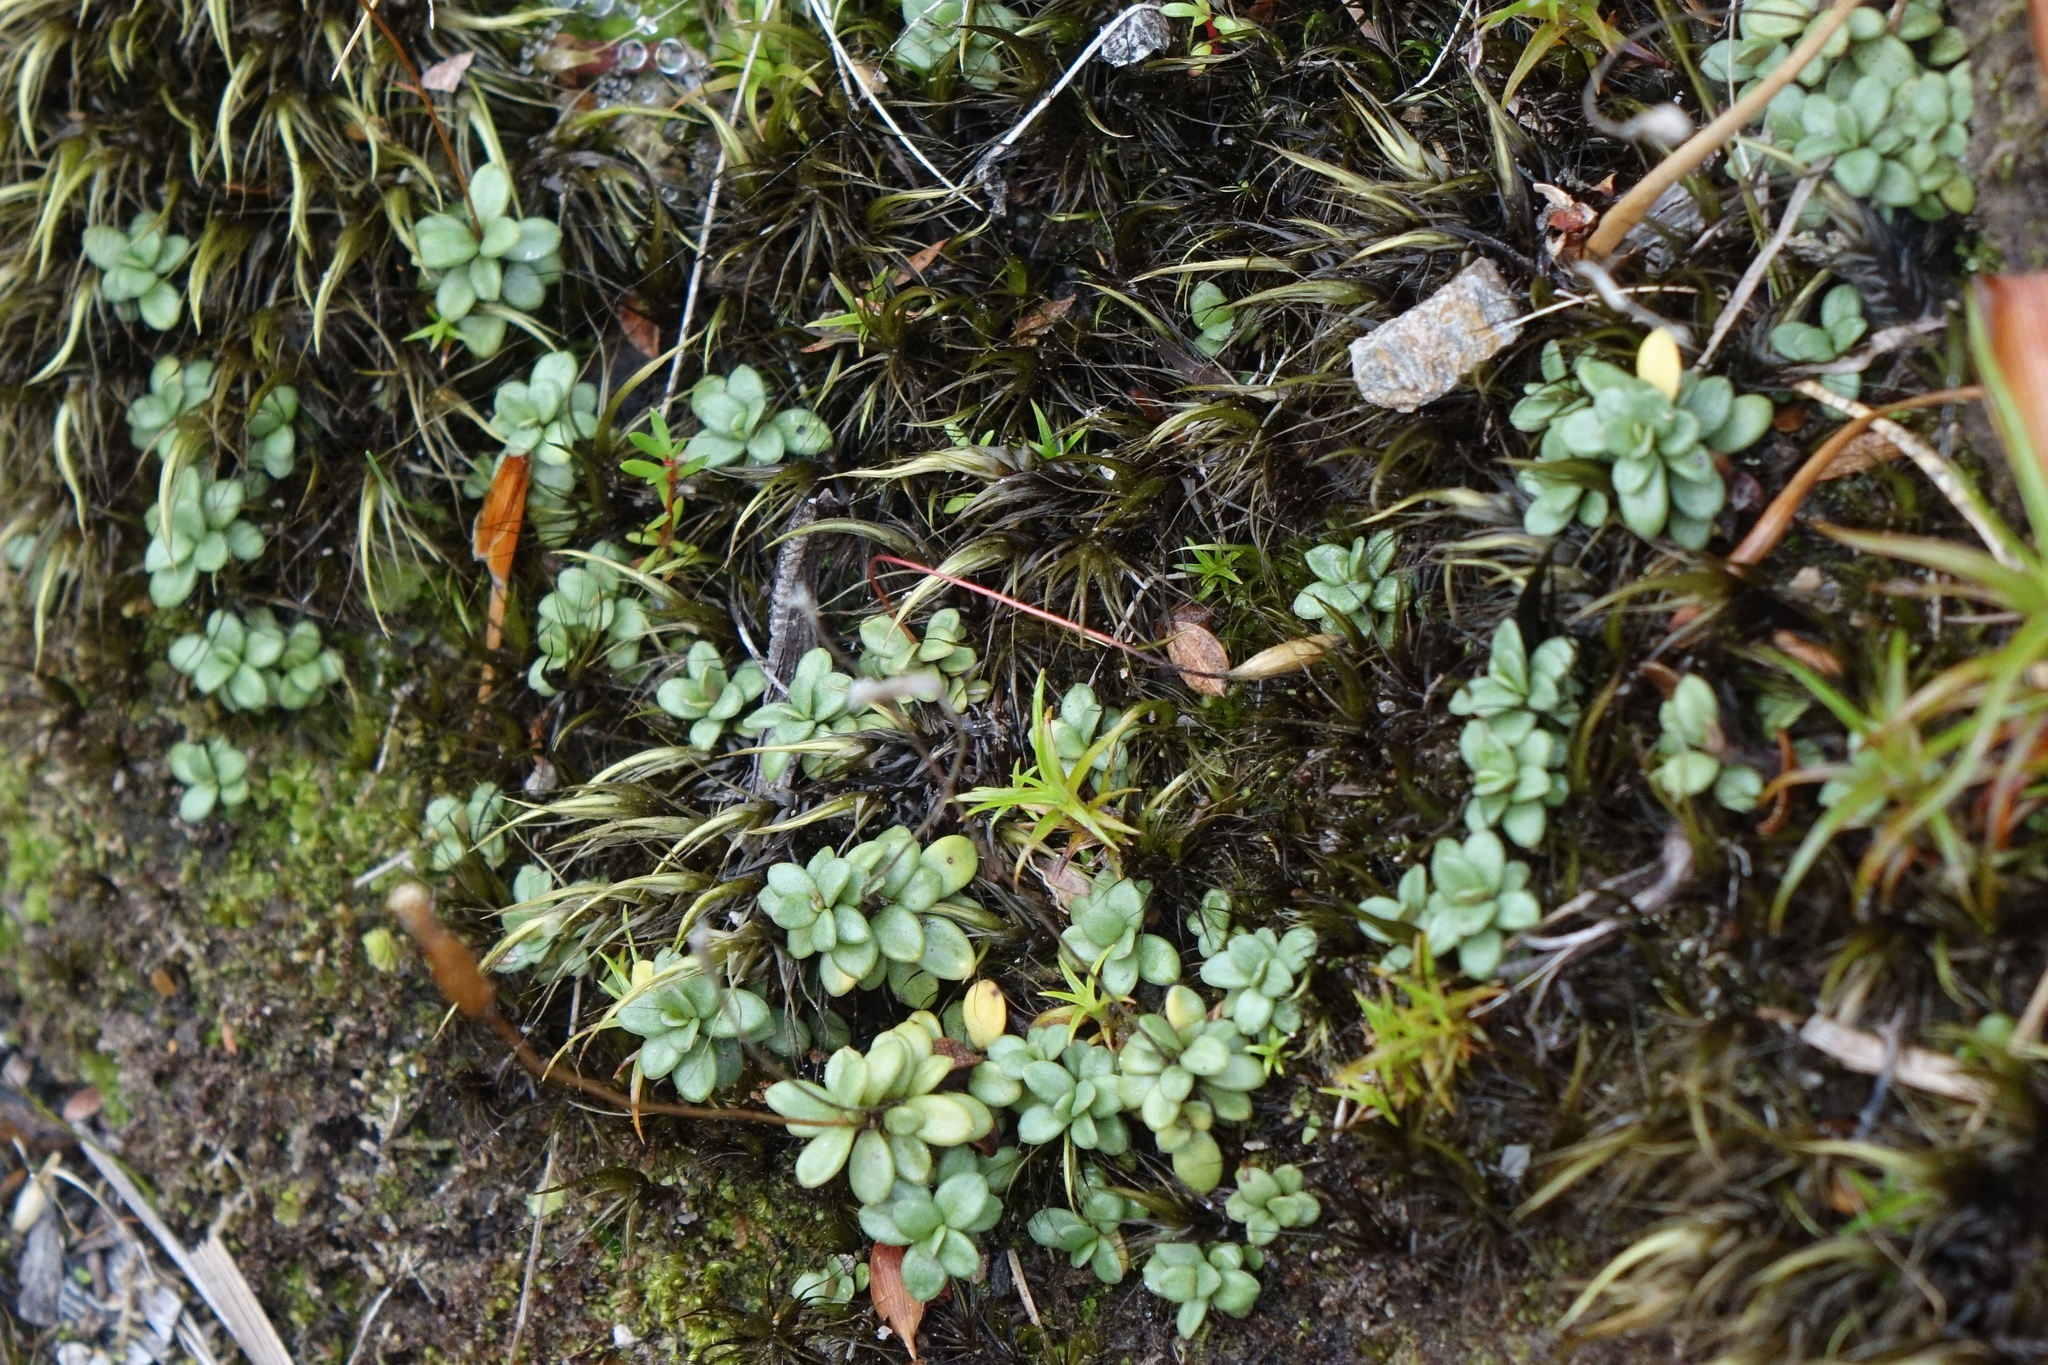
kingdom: Plantae
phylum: Tracheophyta
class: Magnoliopsida
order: Asterales
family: Stylidiaceae
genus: Forstera
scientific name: Forstera tenella
